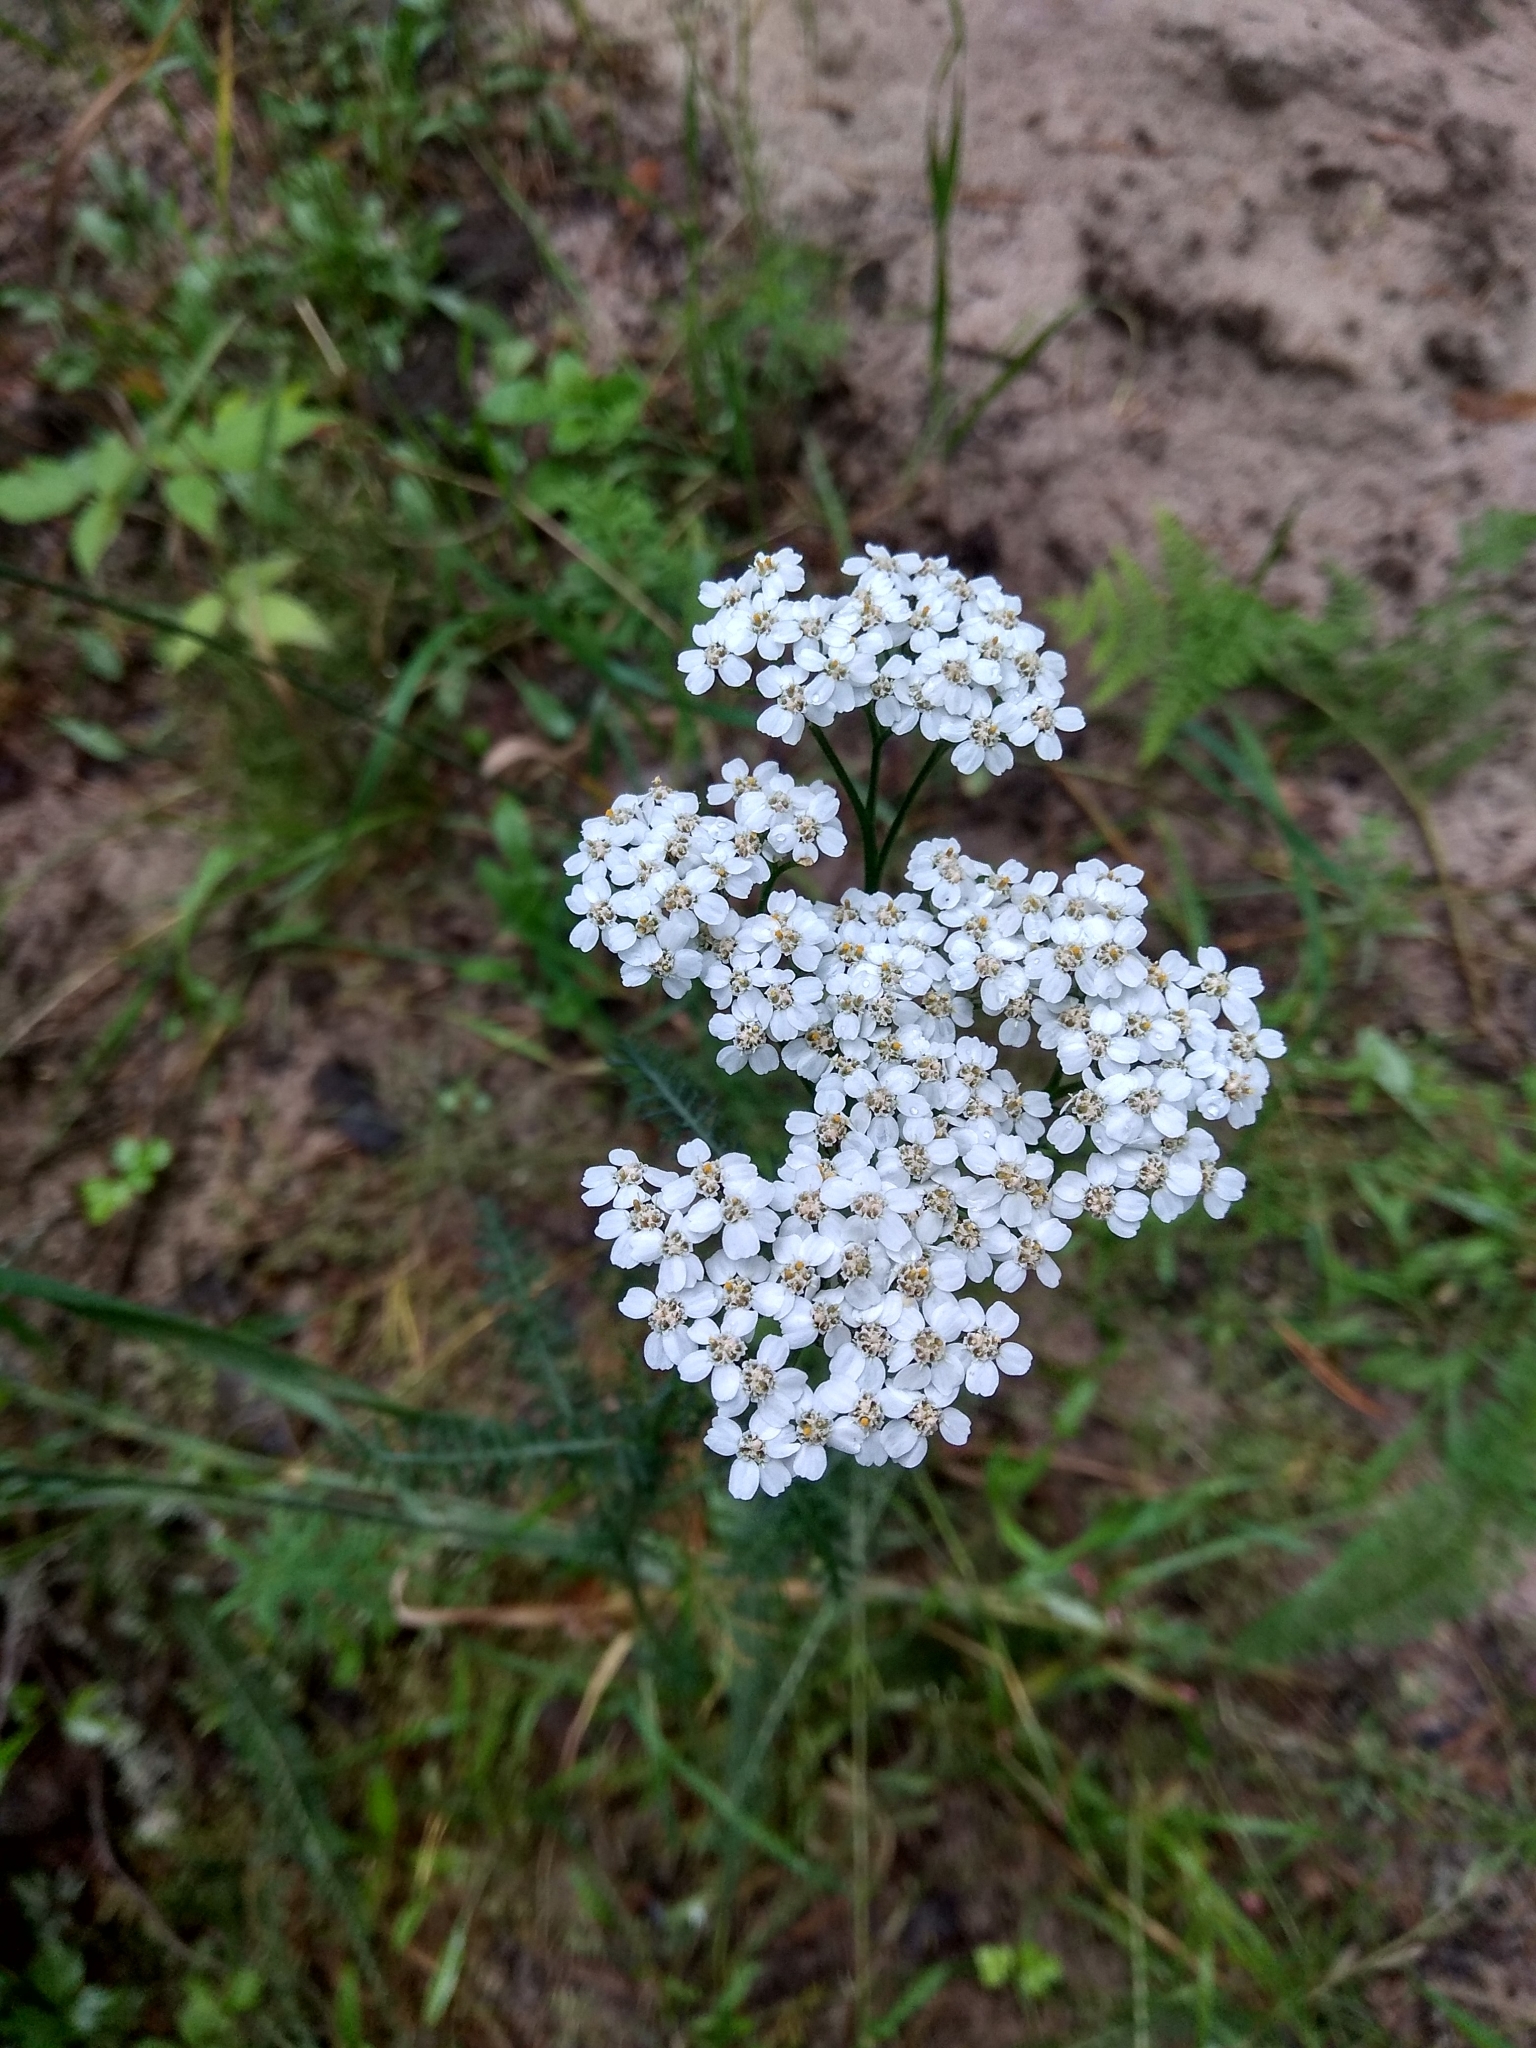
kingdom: Plantae
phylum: Tracheophyta
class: Magnoliopsida
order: Asterales
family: Asteraceae
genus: Achillea
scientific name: Achillea millefolium
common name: Yarrow
